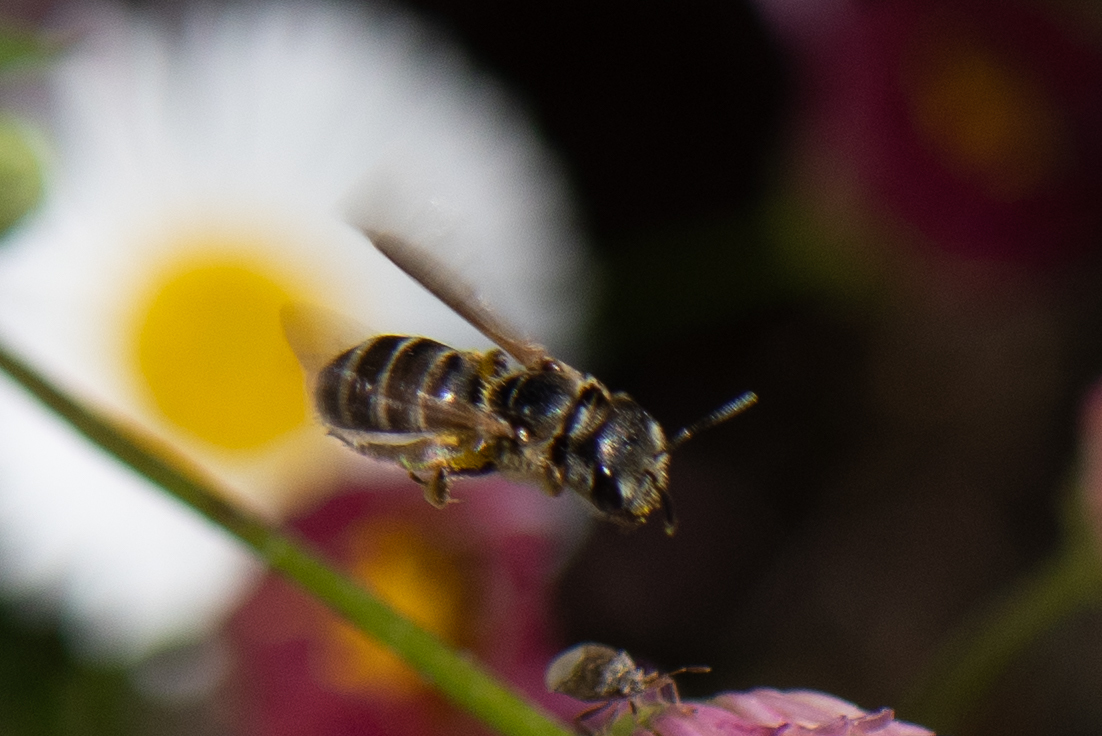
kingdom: Animalia
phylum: Arthropoda
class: Insecta
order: Hymenoptera
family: Halictidae
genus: Halictus
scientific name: Halictus ligatus
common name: Ligated furrow bee
